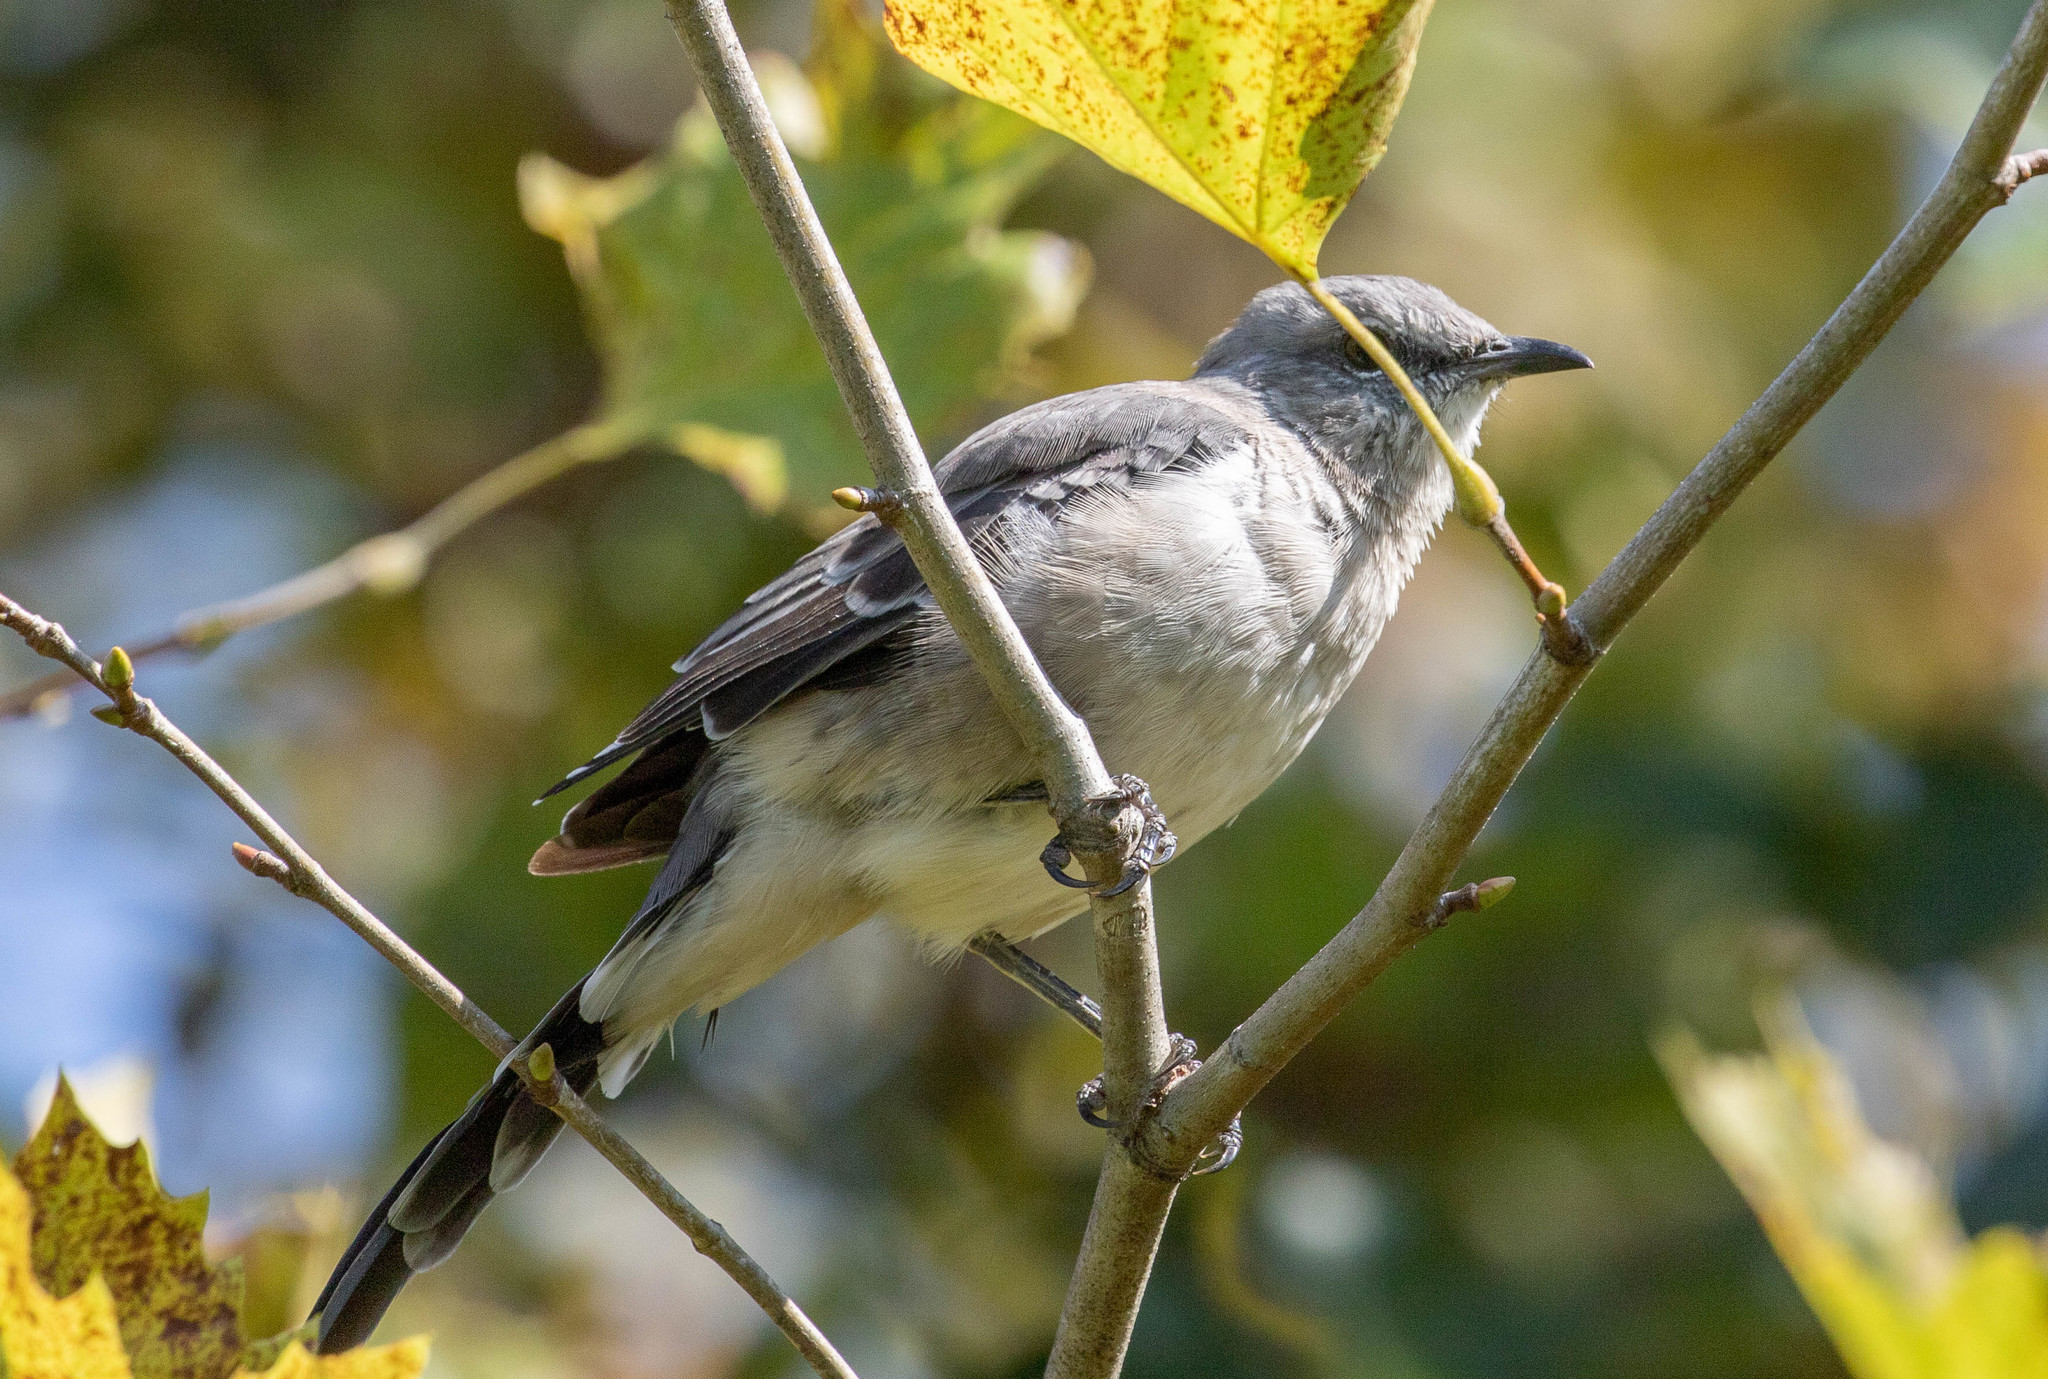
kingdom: Animalia
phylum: Chordata
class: Aves
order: Passeriformes
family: Mimidae
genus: Mimus
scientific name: Mimus polyglottos
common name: Northern mockingbird
